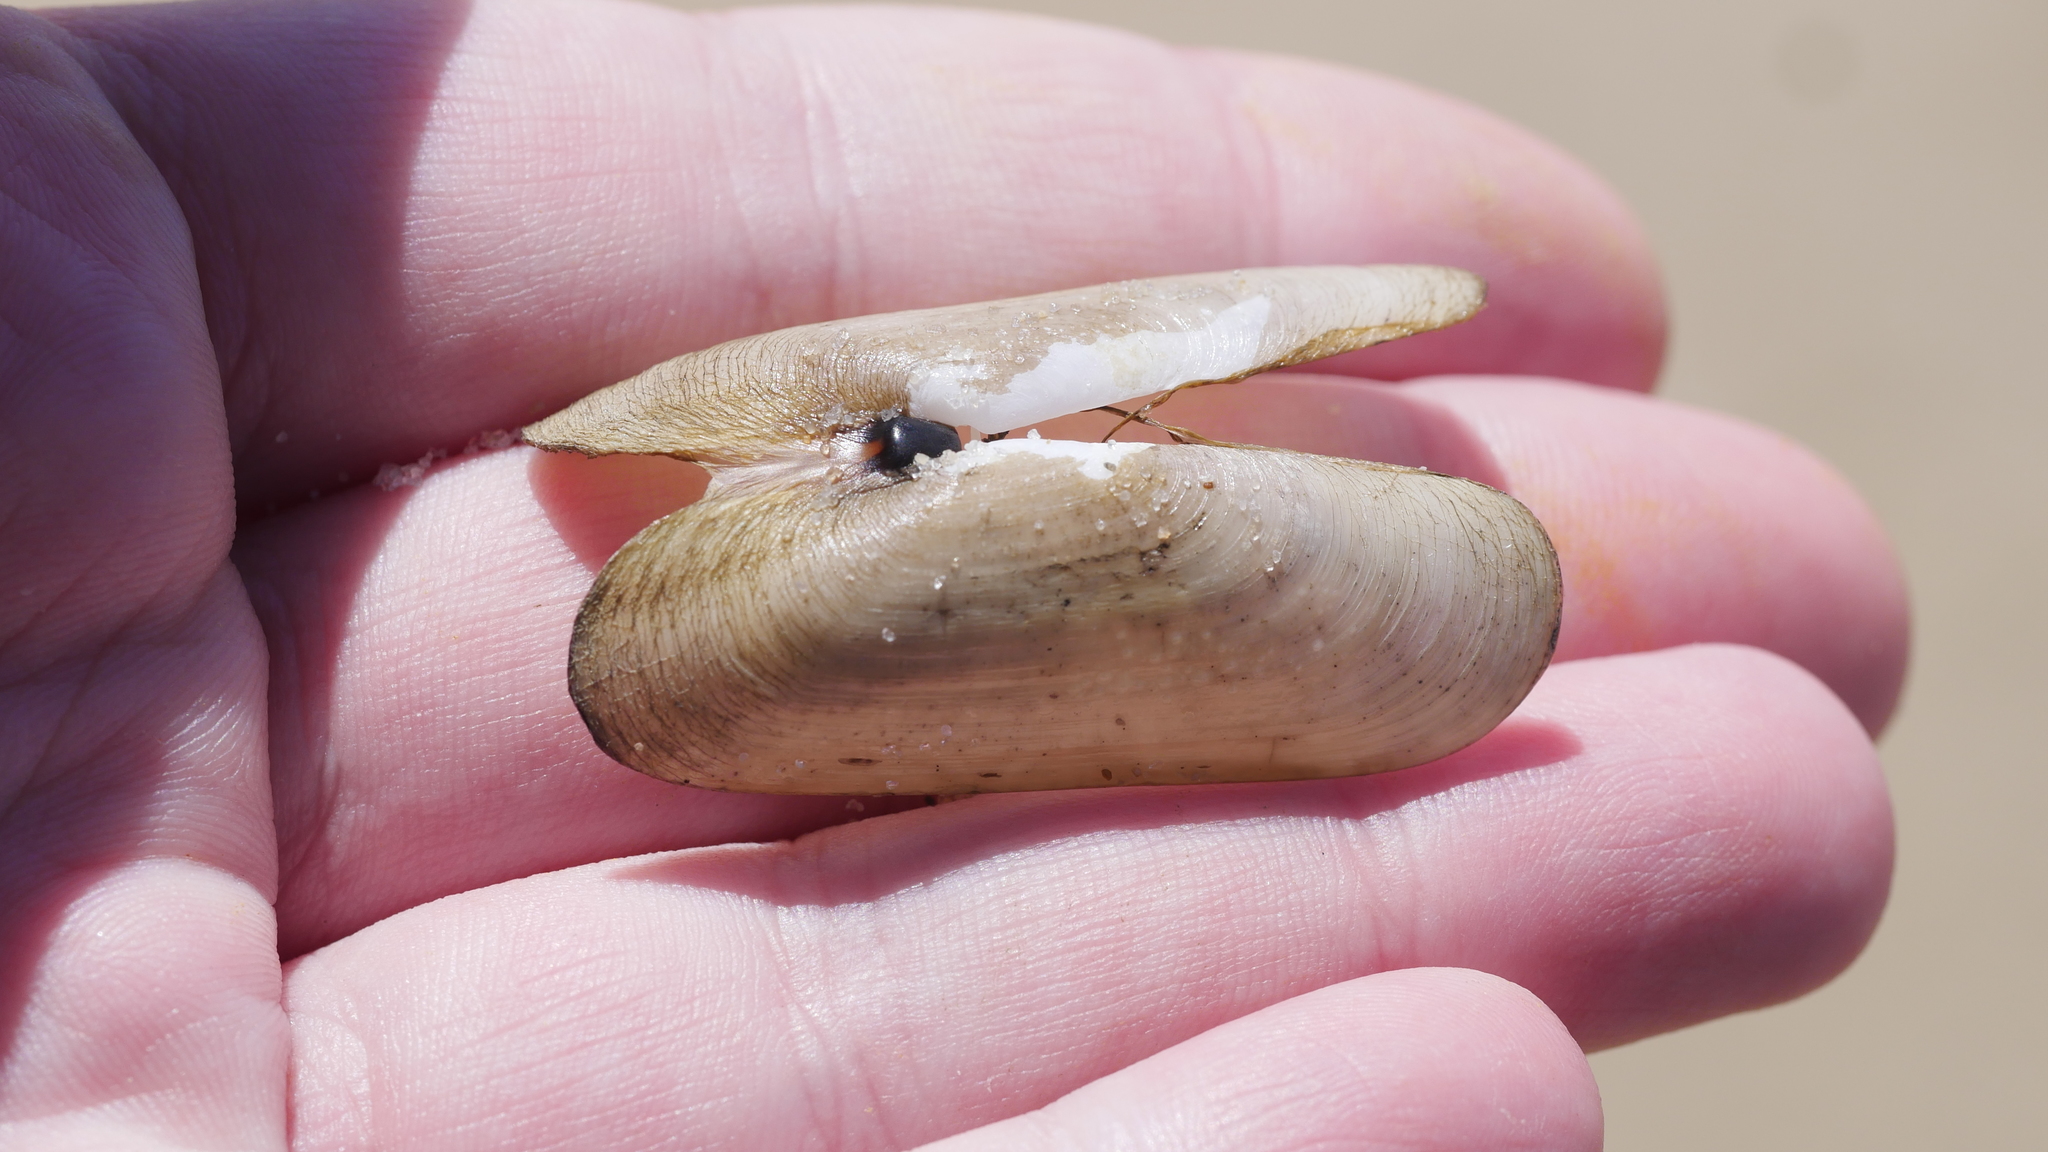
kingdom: Animalia
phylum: Mollusca
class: Bivalvia
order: Cardiida
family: Solecurtidae
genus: Tagelus
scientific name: Tagelus plebeius
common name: Stout tagelus
